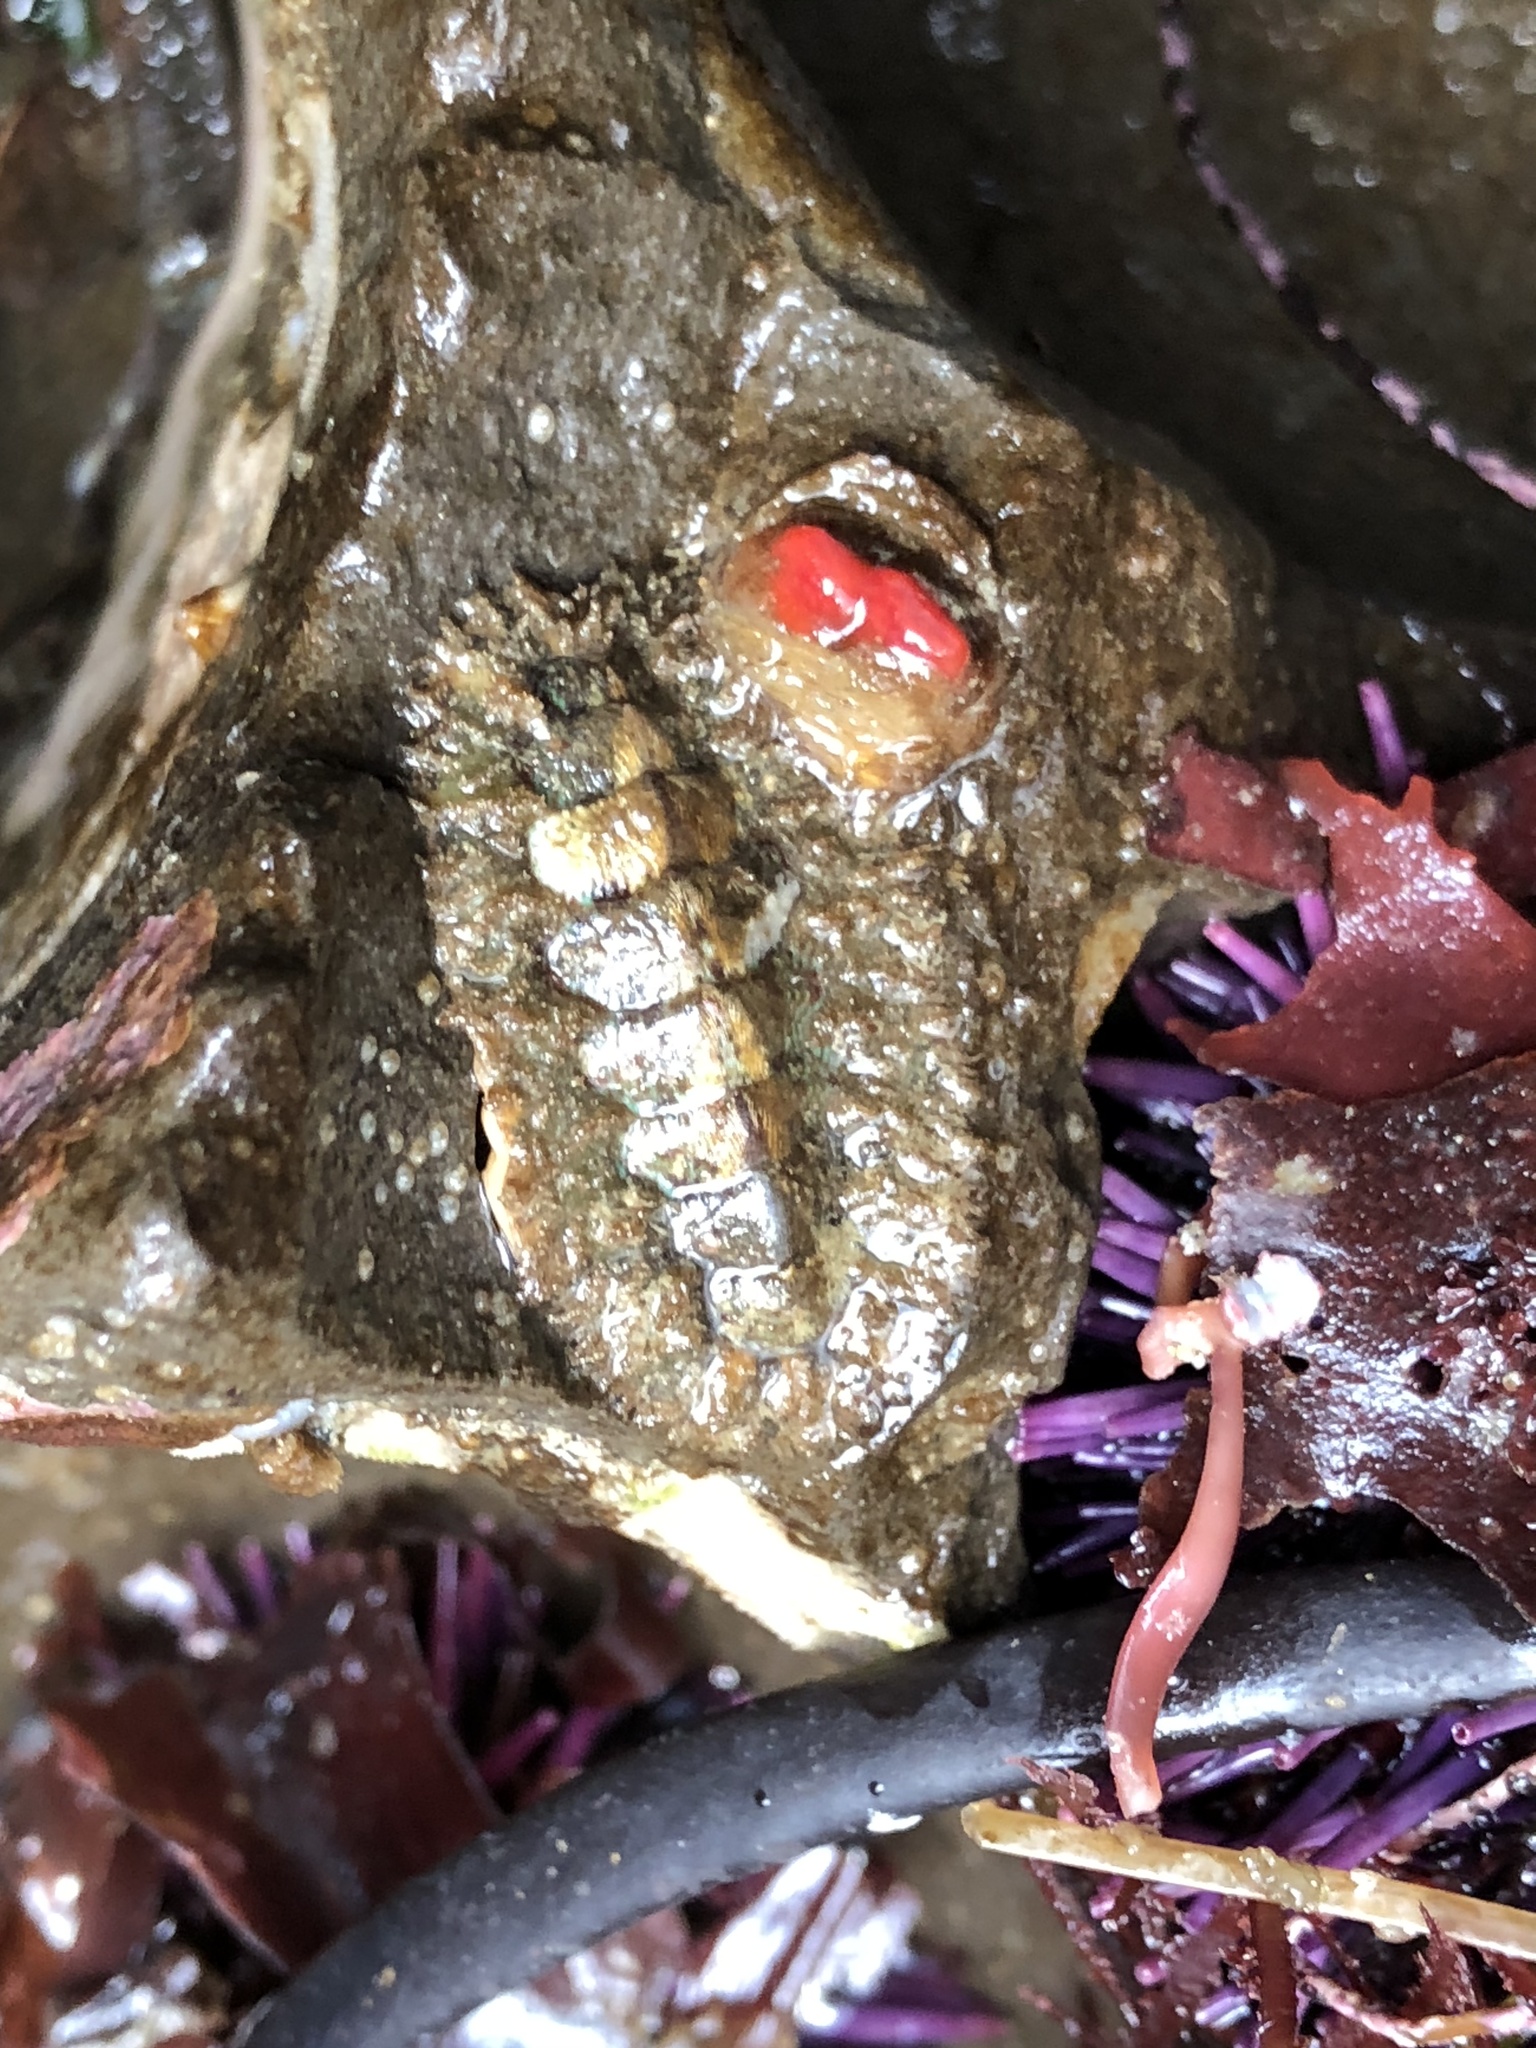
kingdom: Animalia
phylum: Mollusca
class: Polyplacophora
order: Chitonida
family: Mopaliidae
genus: Mopalia
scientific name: Mopalia muscosa
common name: Mossy chiton
